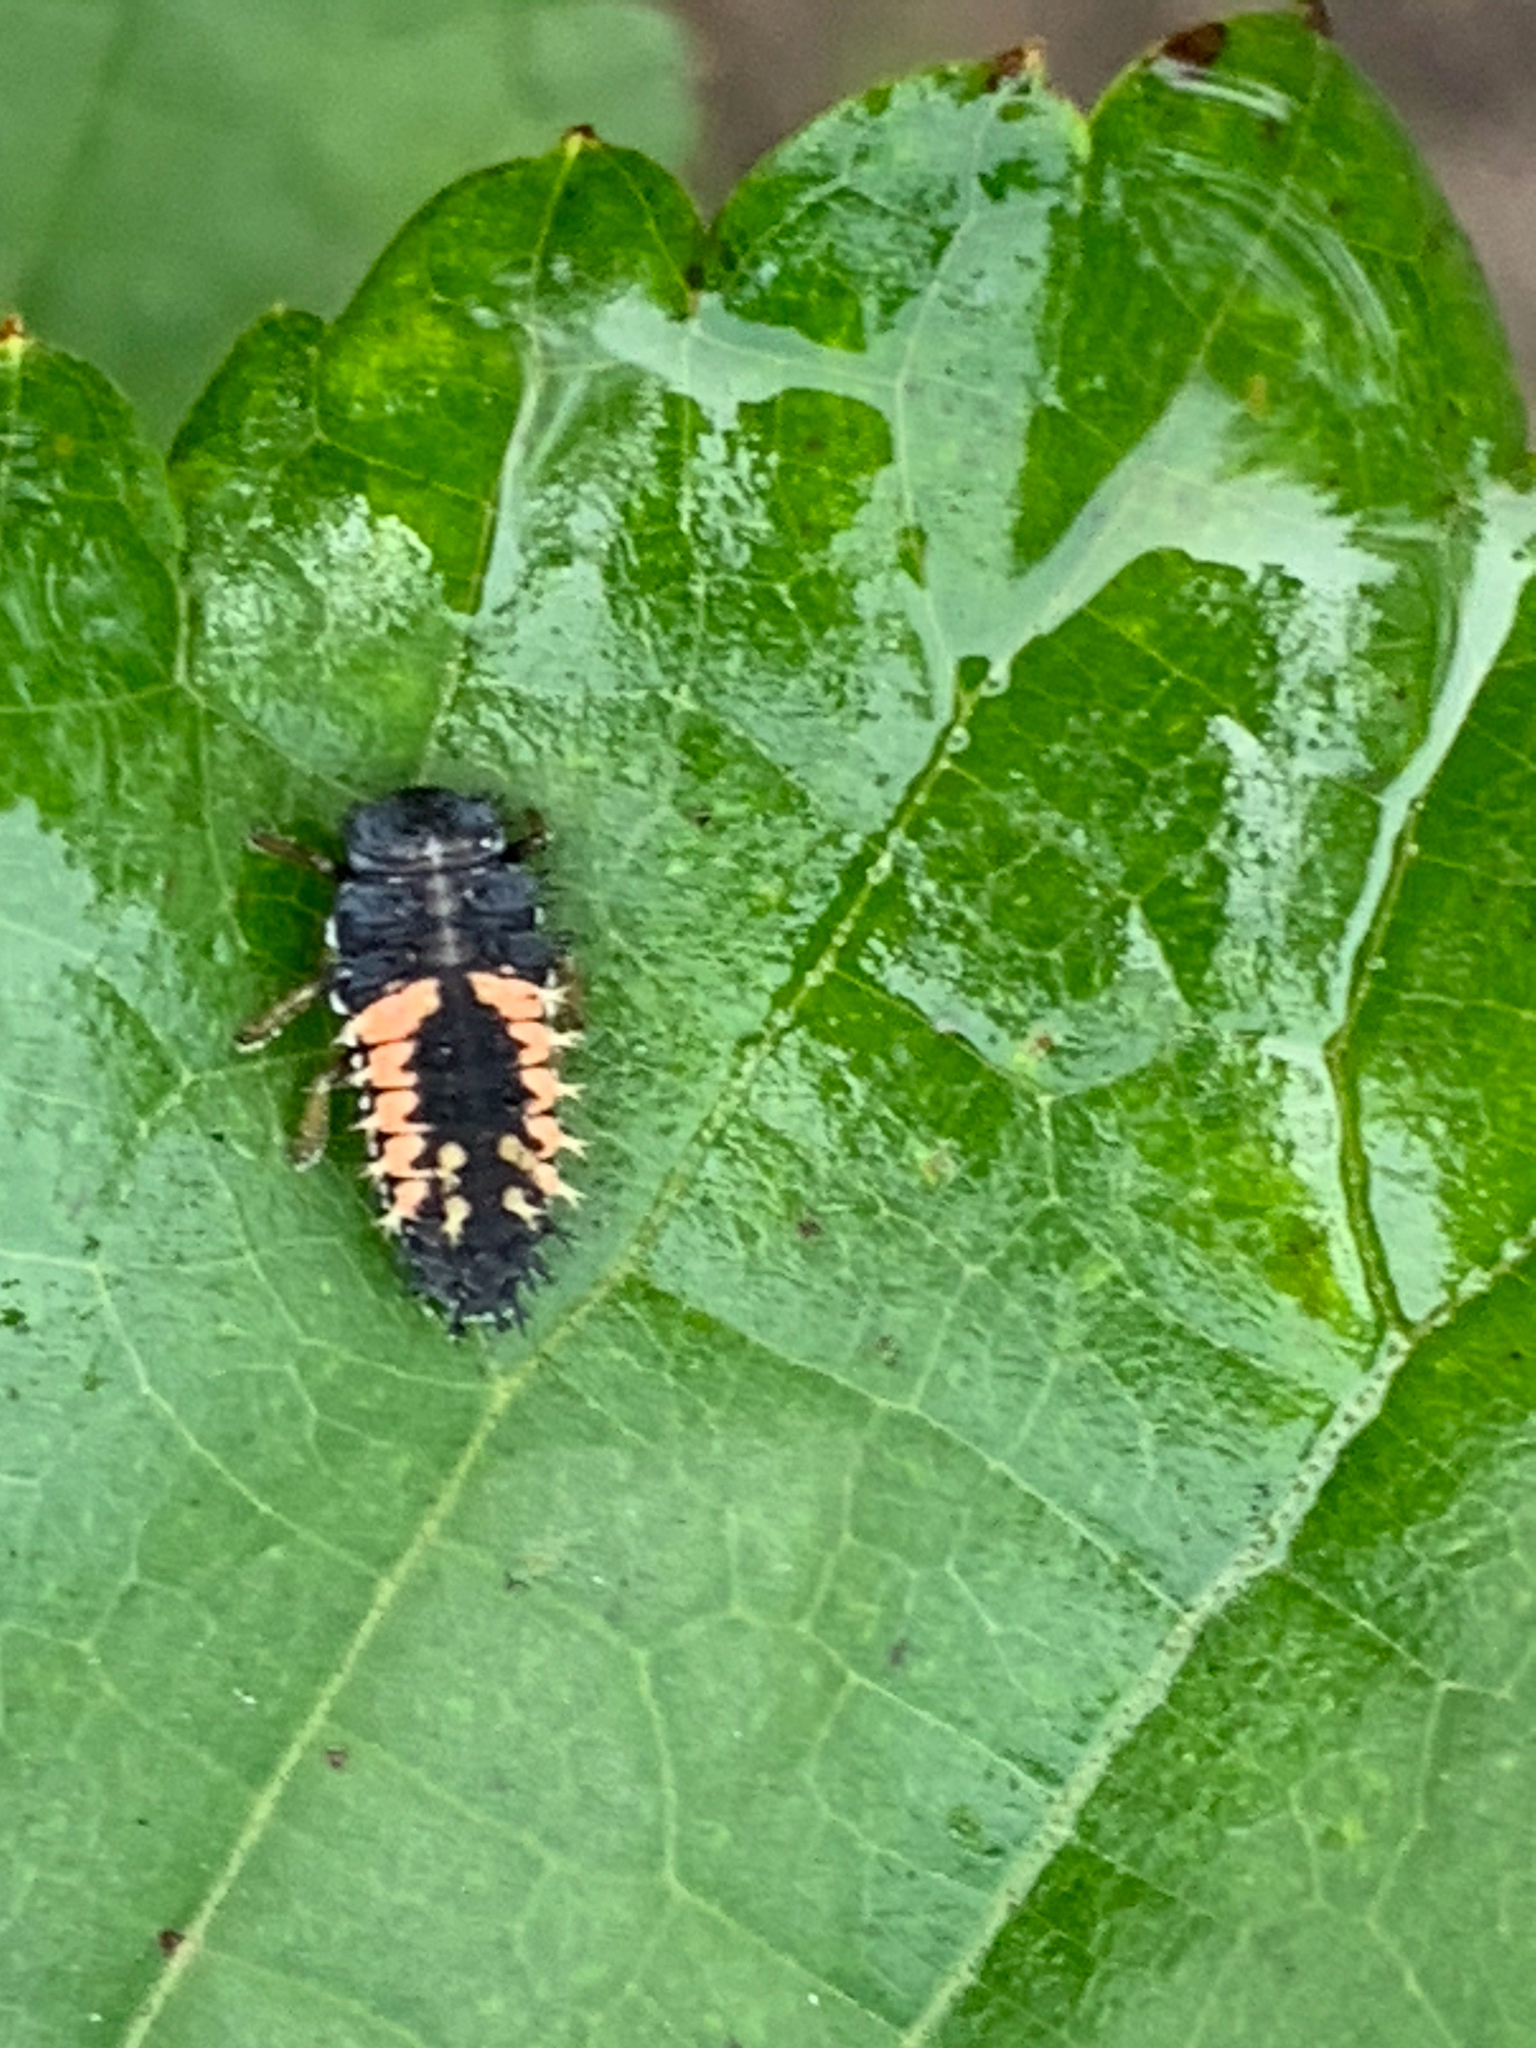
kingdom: Animalia
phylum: Arthropoda
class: Insecta
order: Coleoptera
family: Coccinellidae
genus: Harmonia
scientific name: Harmonia axyridis
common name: Harlequin ladybird
